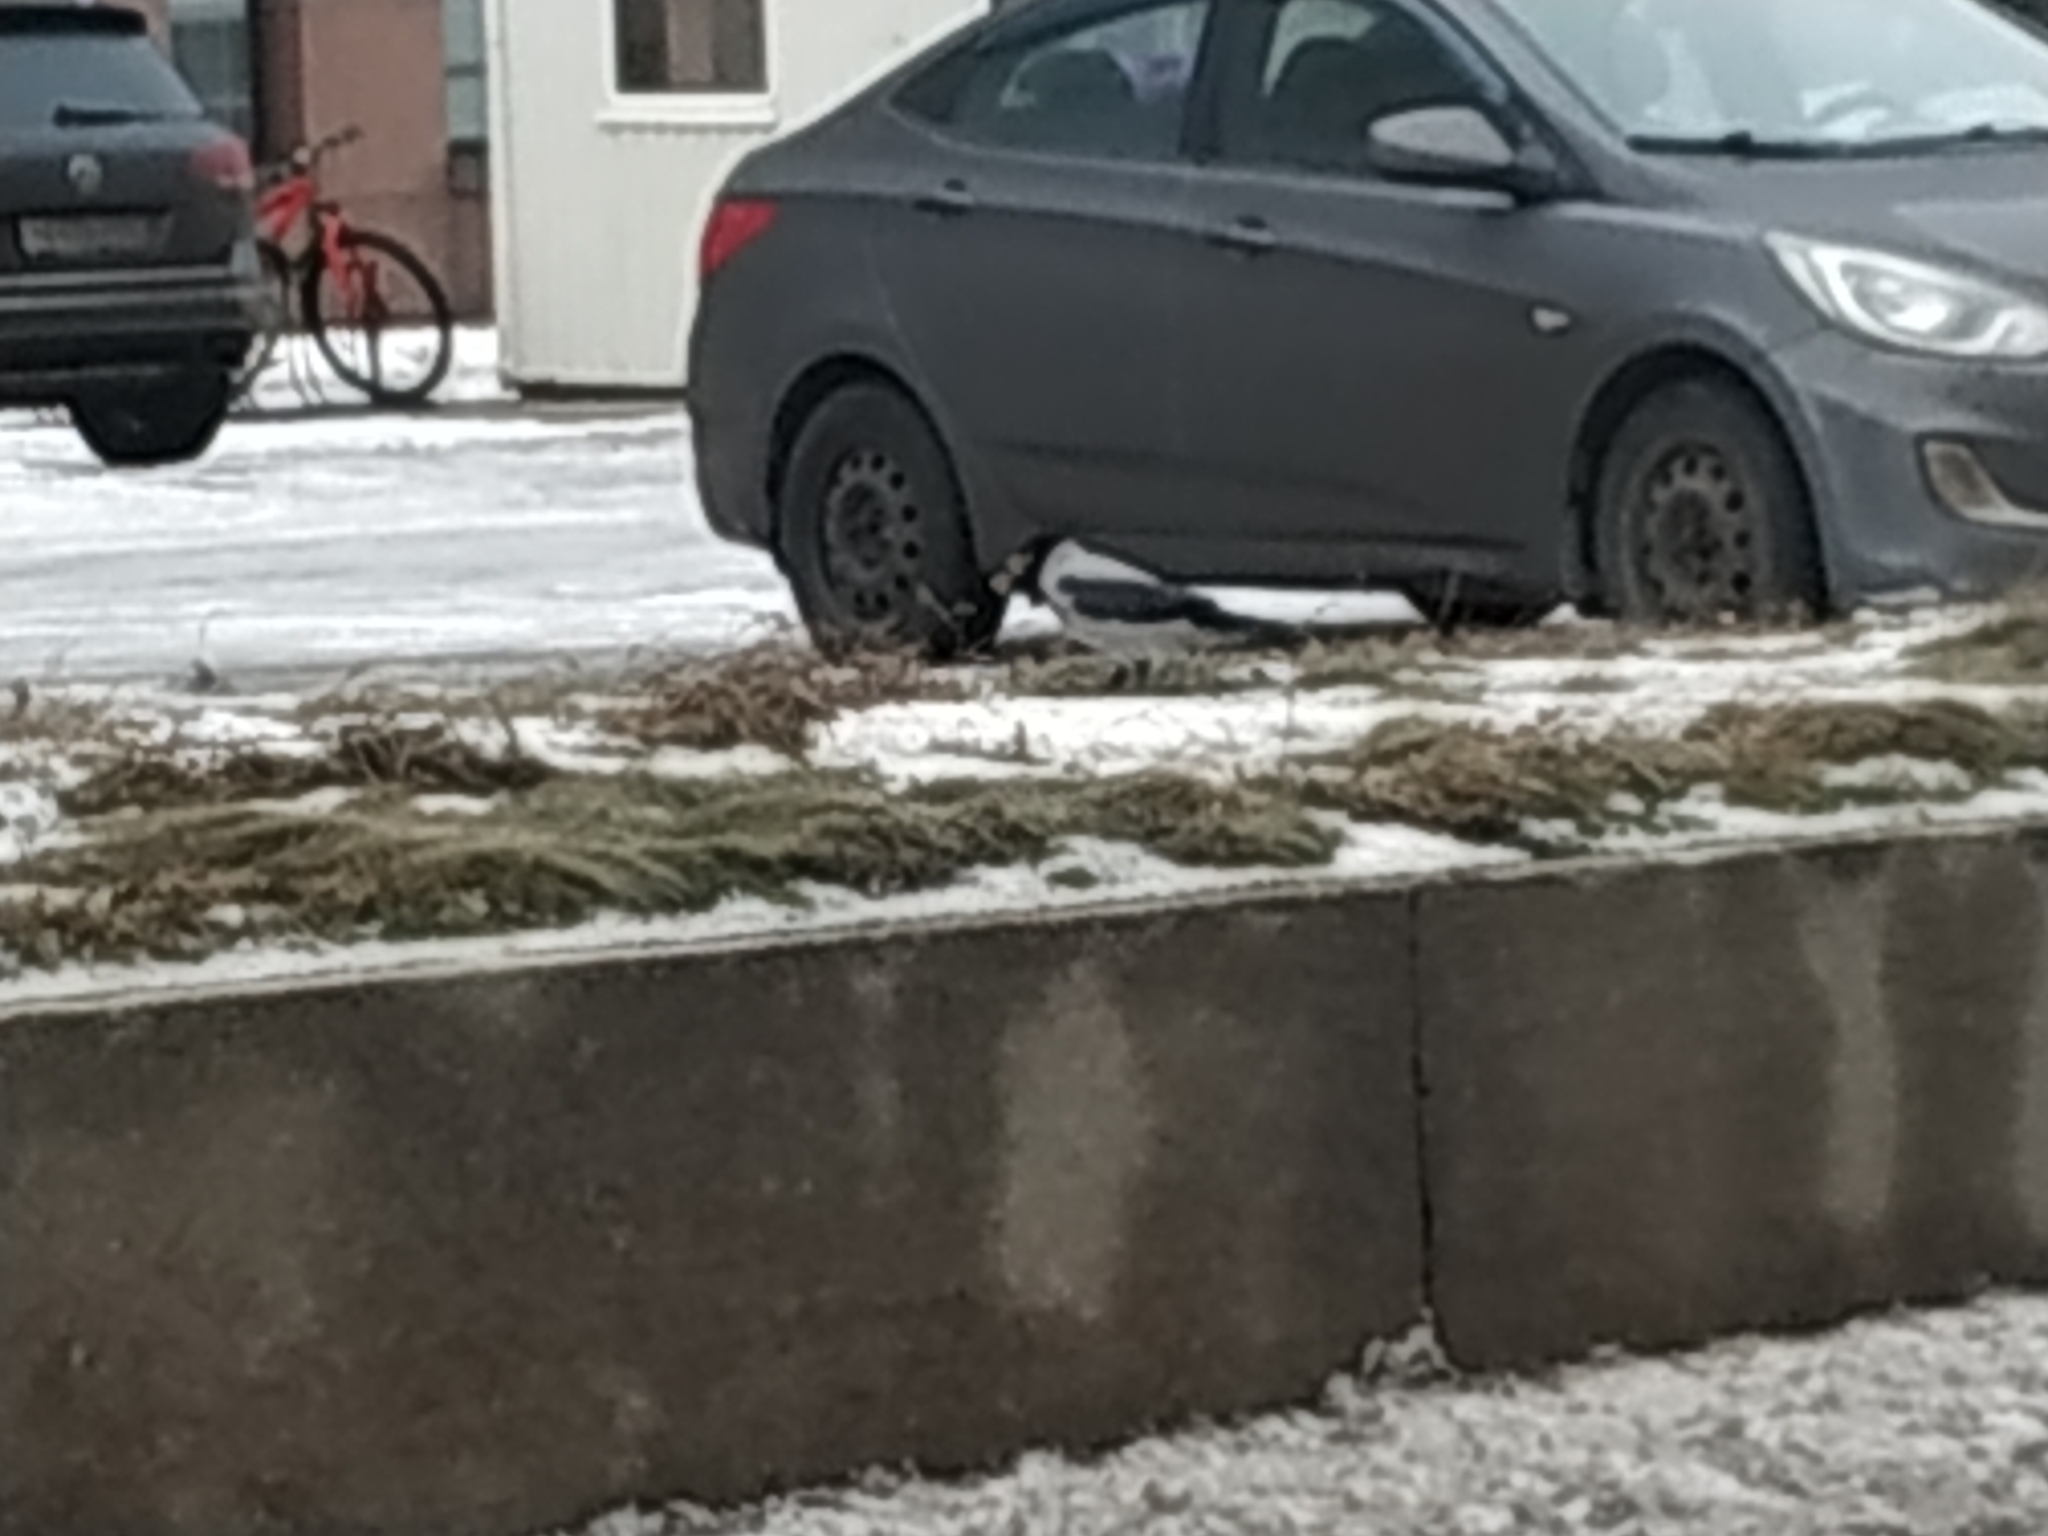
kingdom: Animalia
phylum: Chordata
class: Aves
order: Passeriformes
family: Corvidae
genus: Corvus
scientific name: Corvus cornix
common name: Hooded crow
